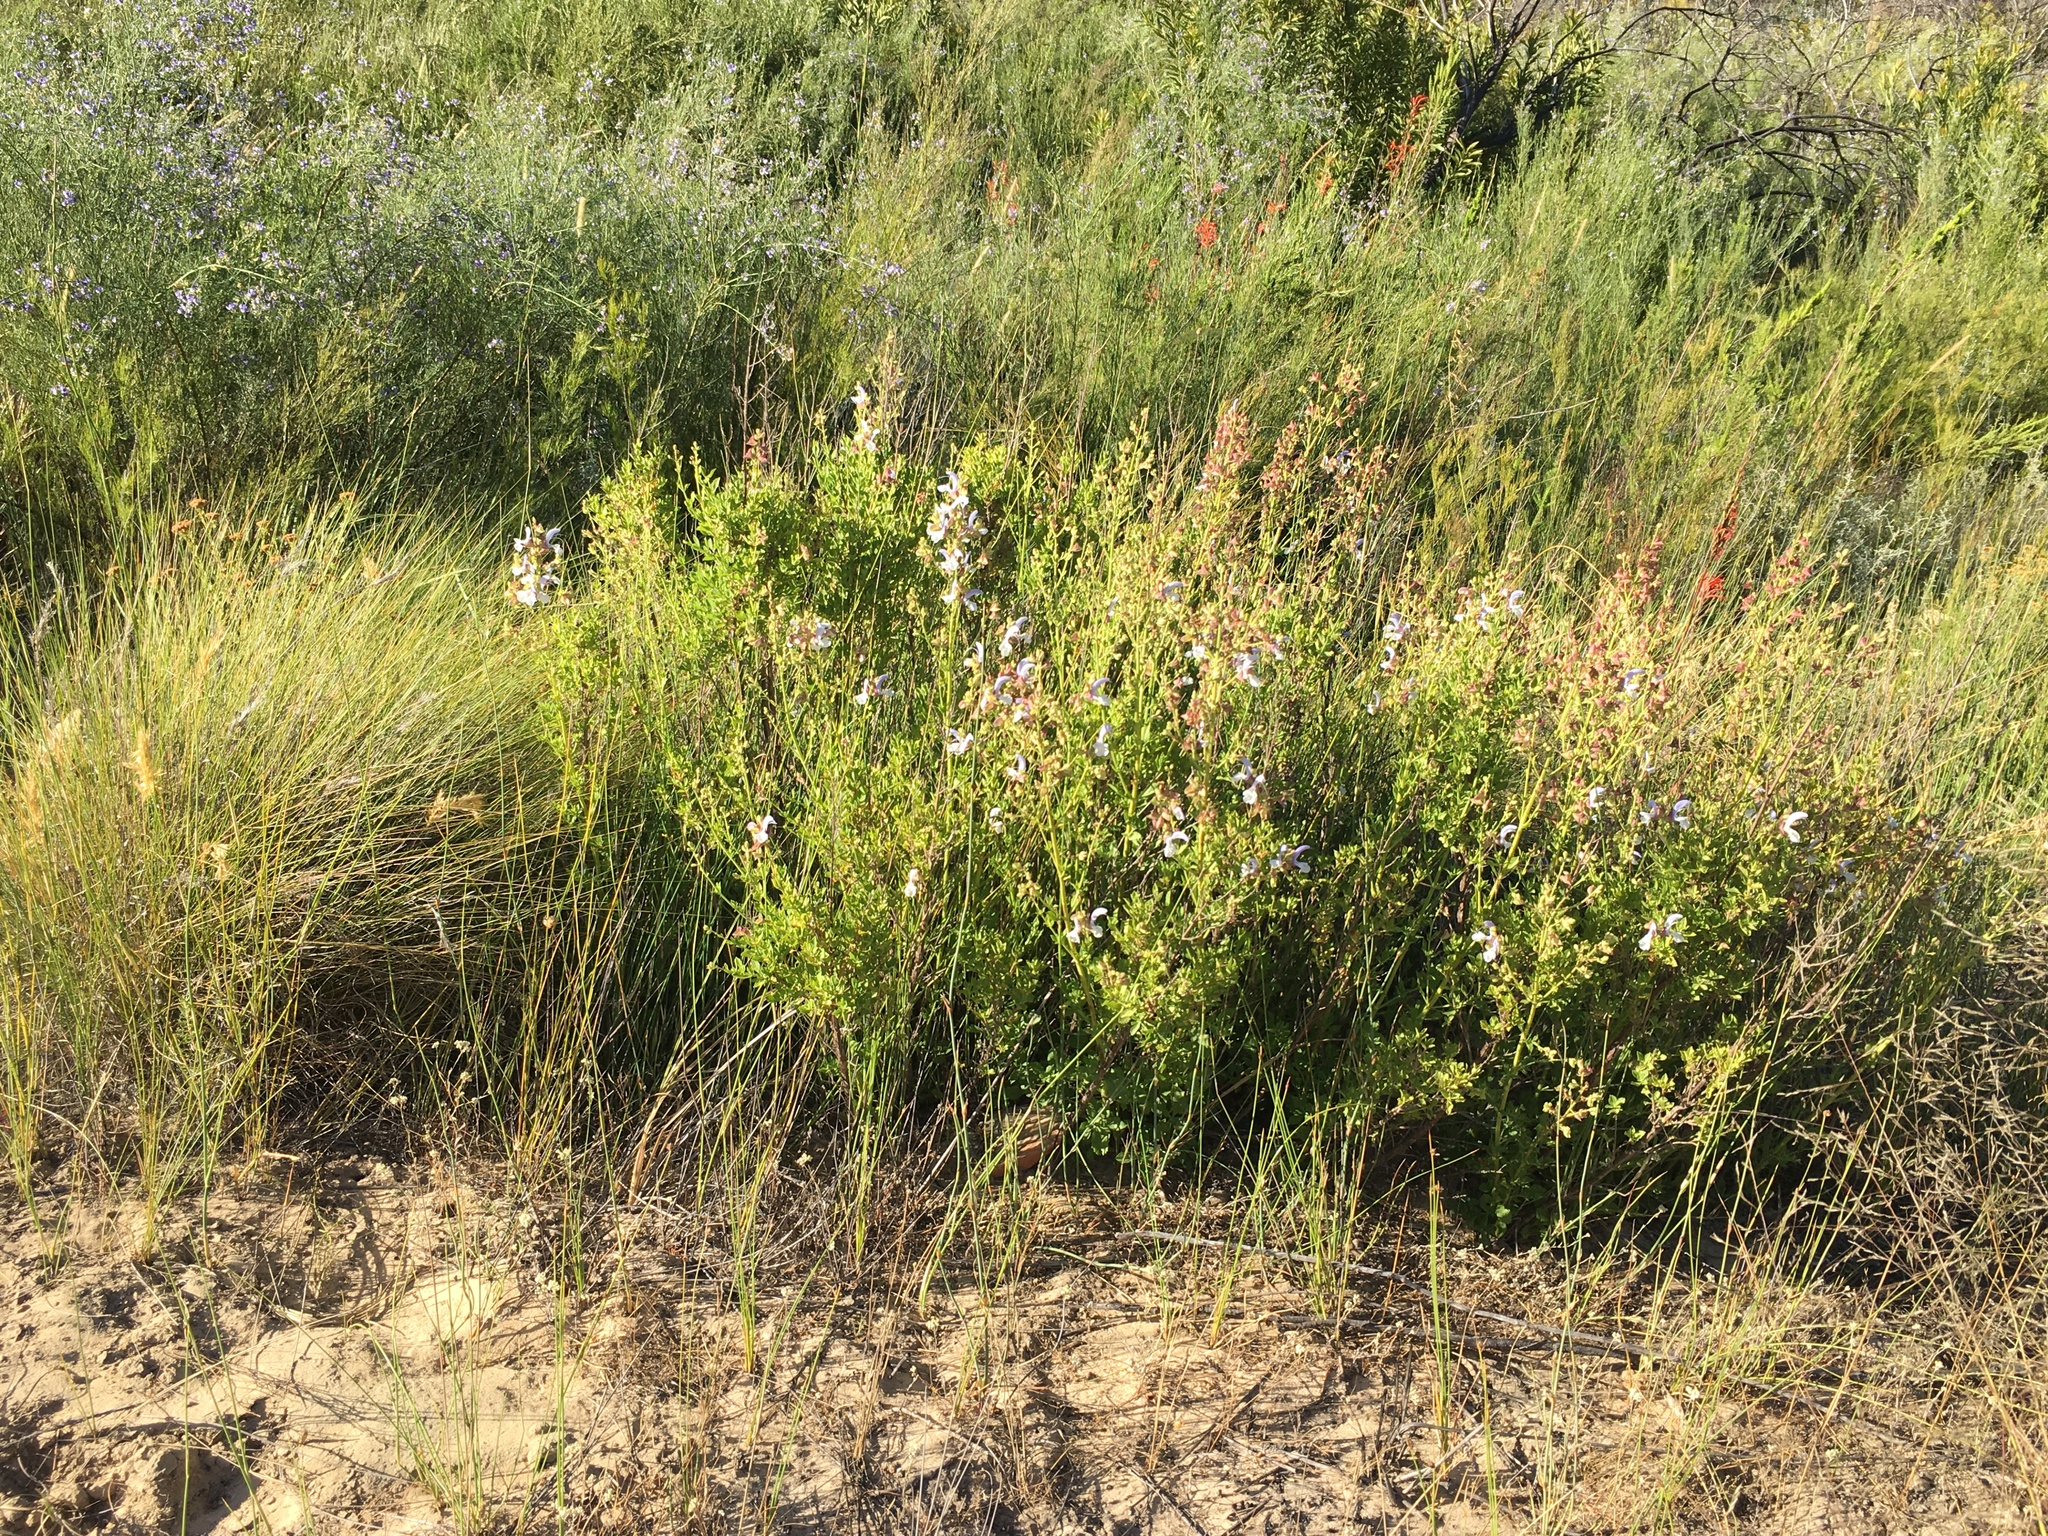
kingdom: Plantae
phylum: Tracheophyta
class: Magnoliopsida
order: Lamiales
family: Lamiaceae
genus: Salvia
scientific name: Salvia chamelaeagnea
